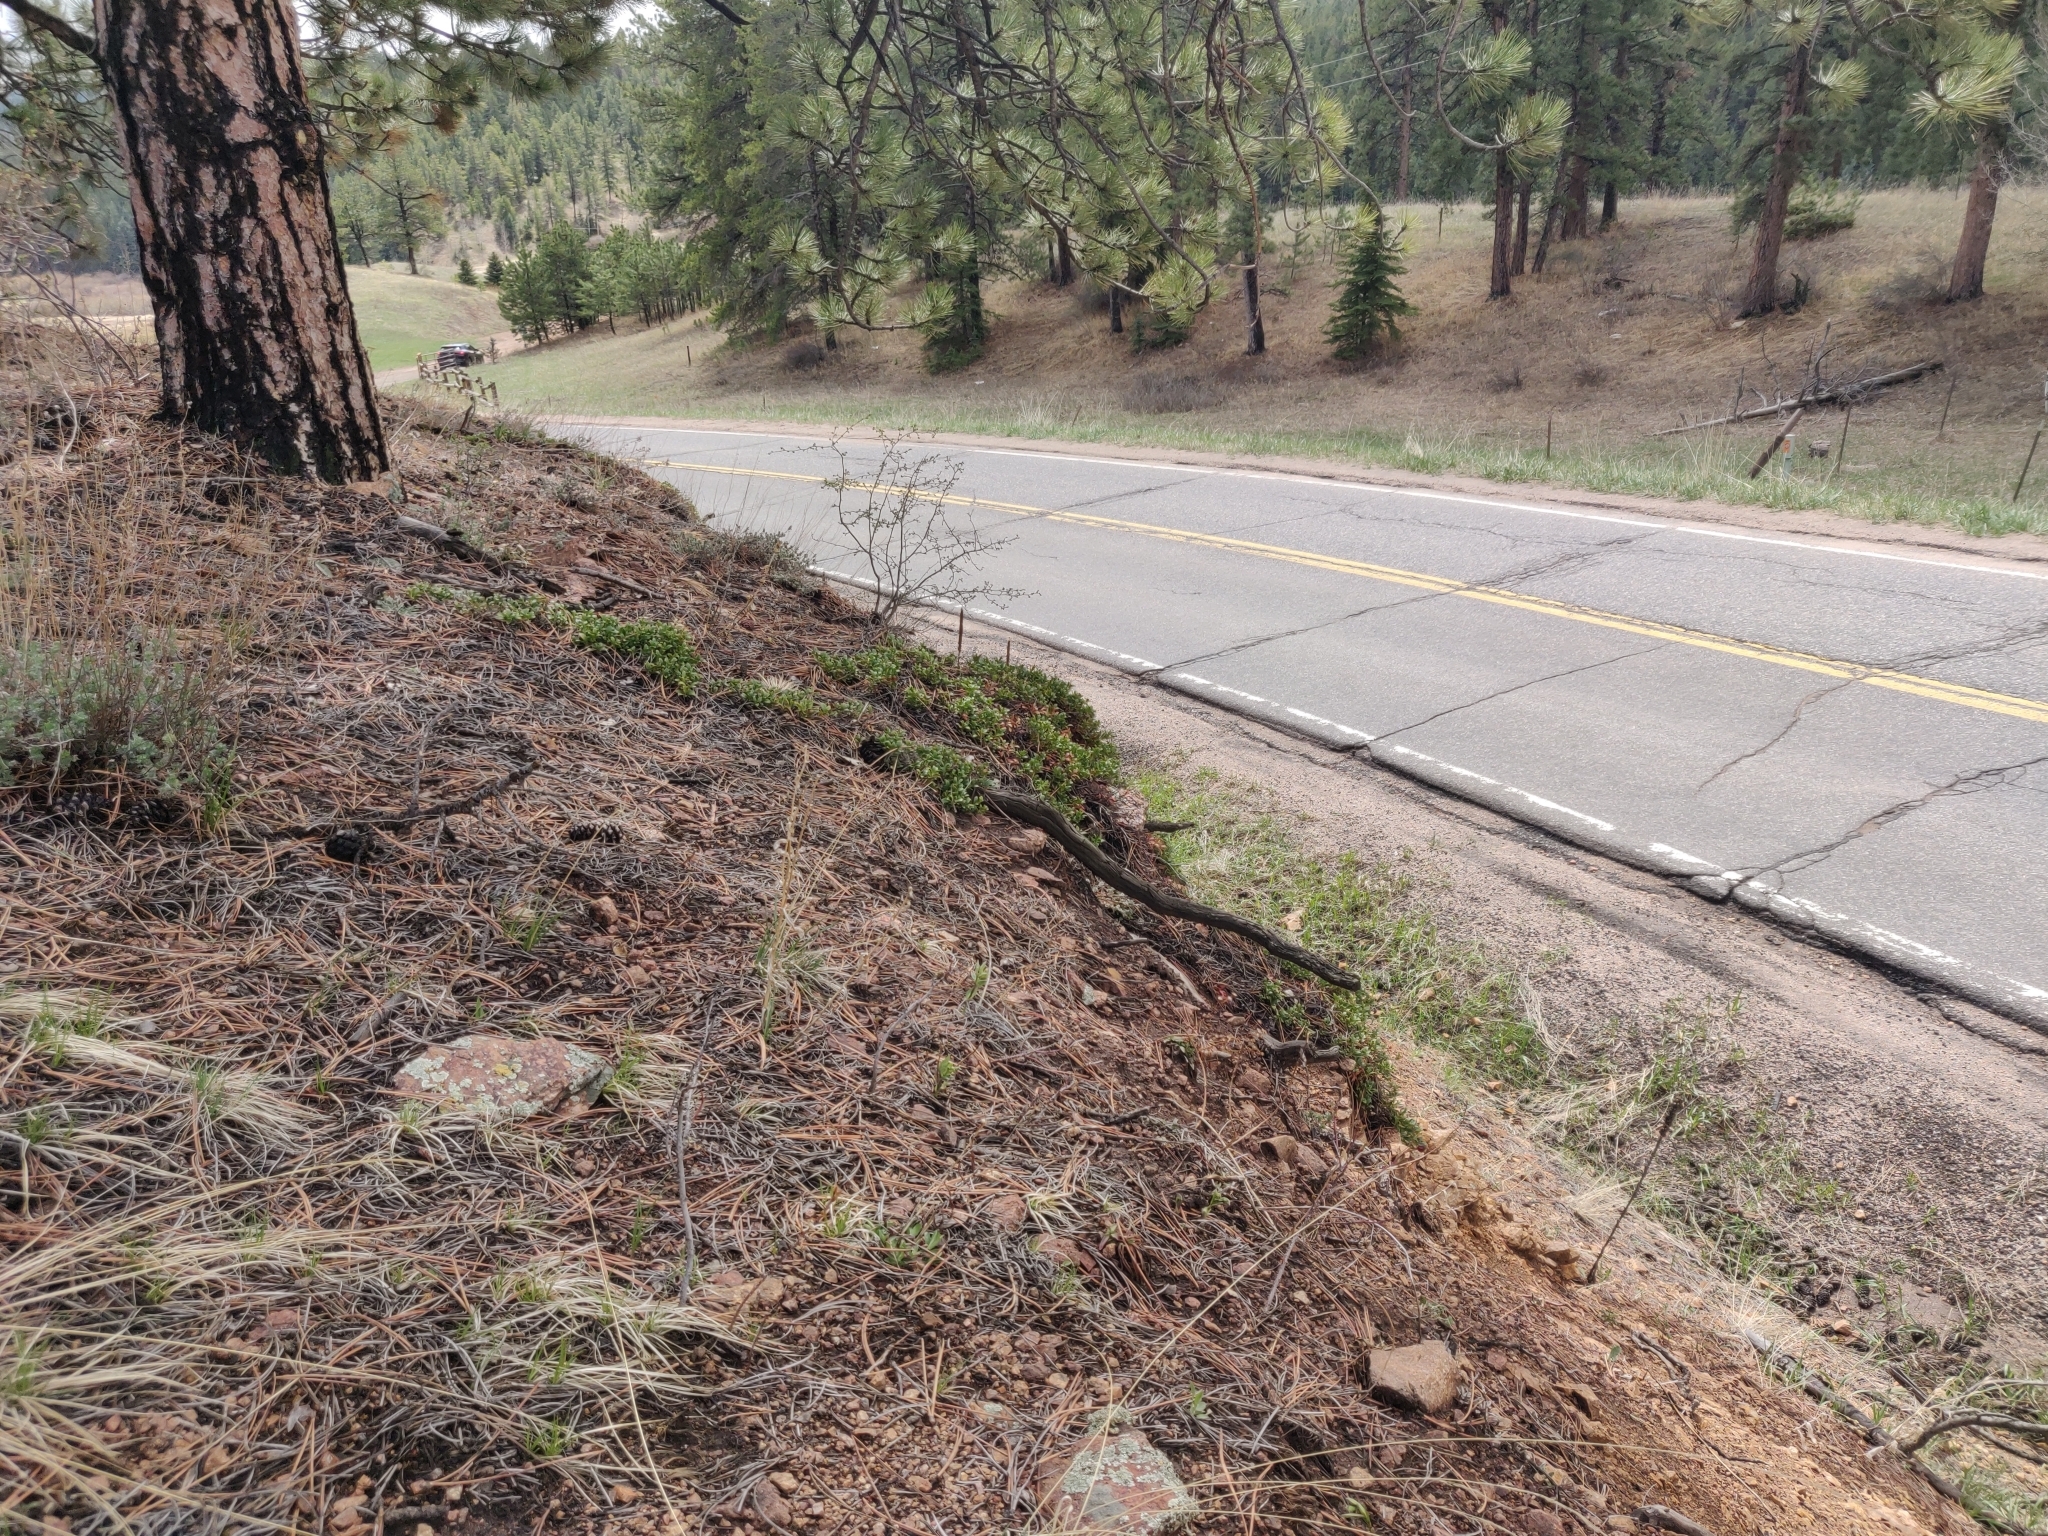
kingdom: Plantae
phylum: Tracheophyta
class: Magnoliopsida
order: Ericales
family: Ericaceae
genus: Arctostaphylos
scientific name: Arctostaphylos uva-ursi
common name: Bearberry
